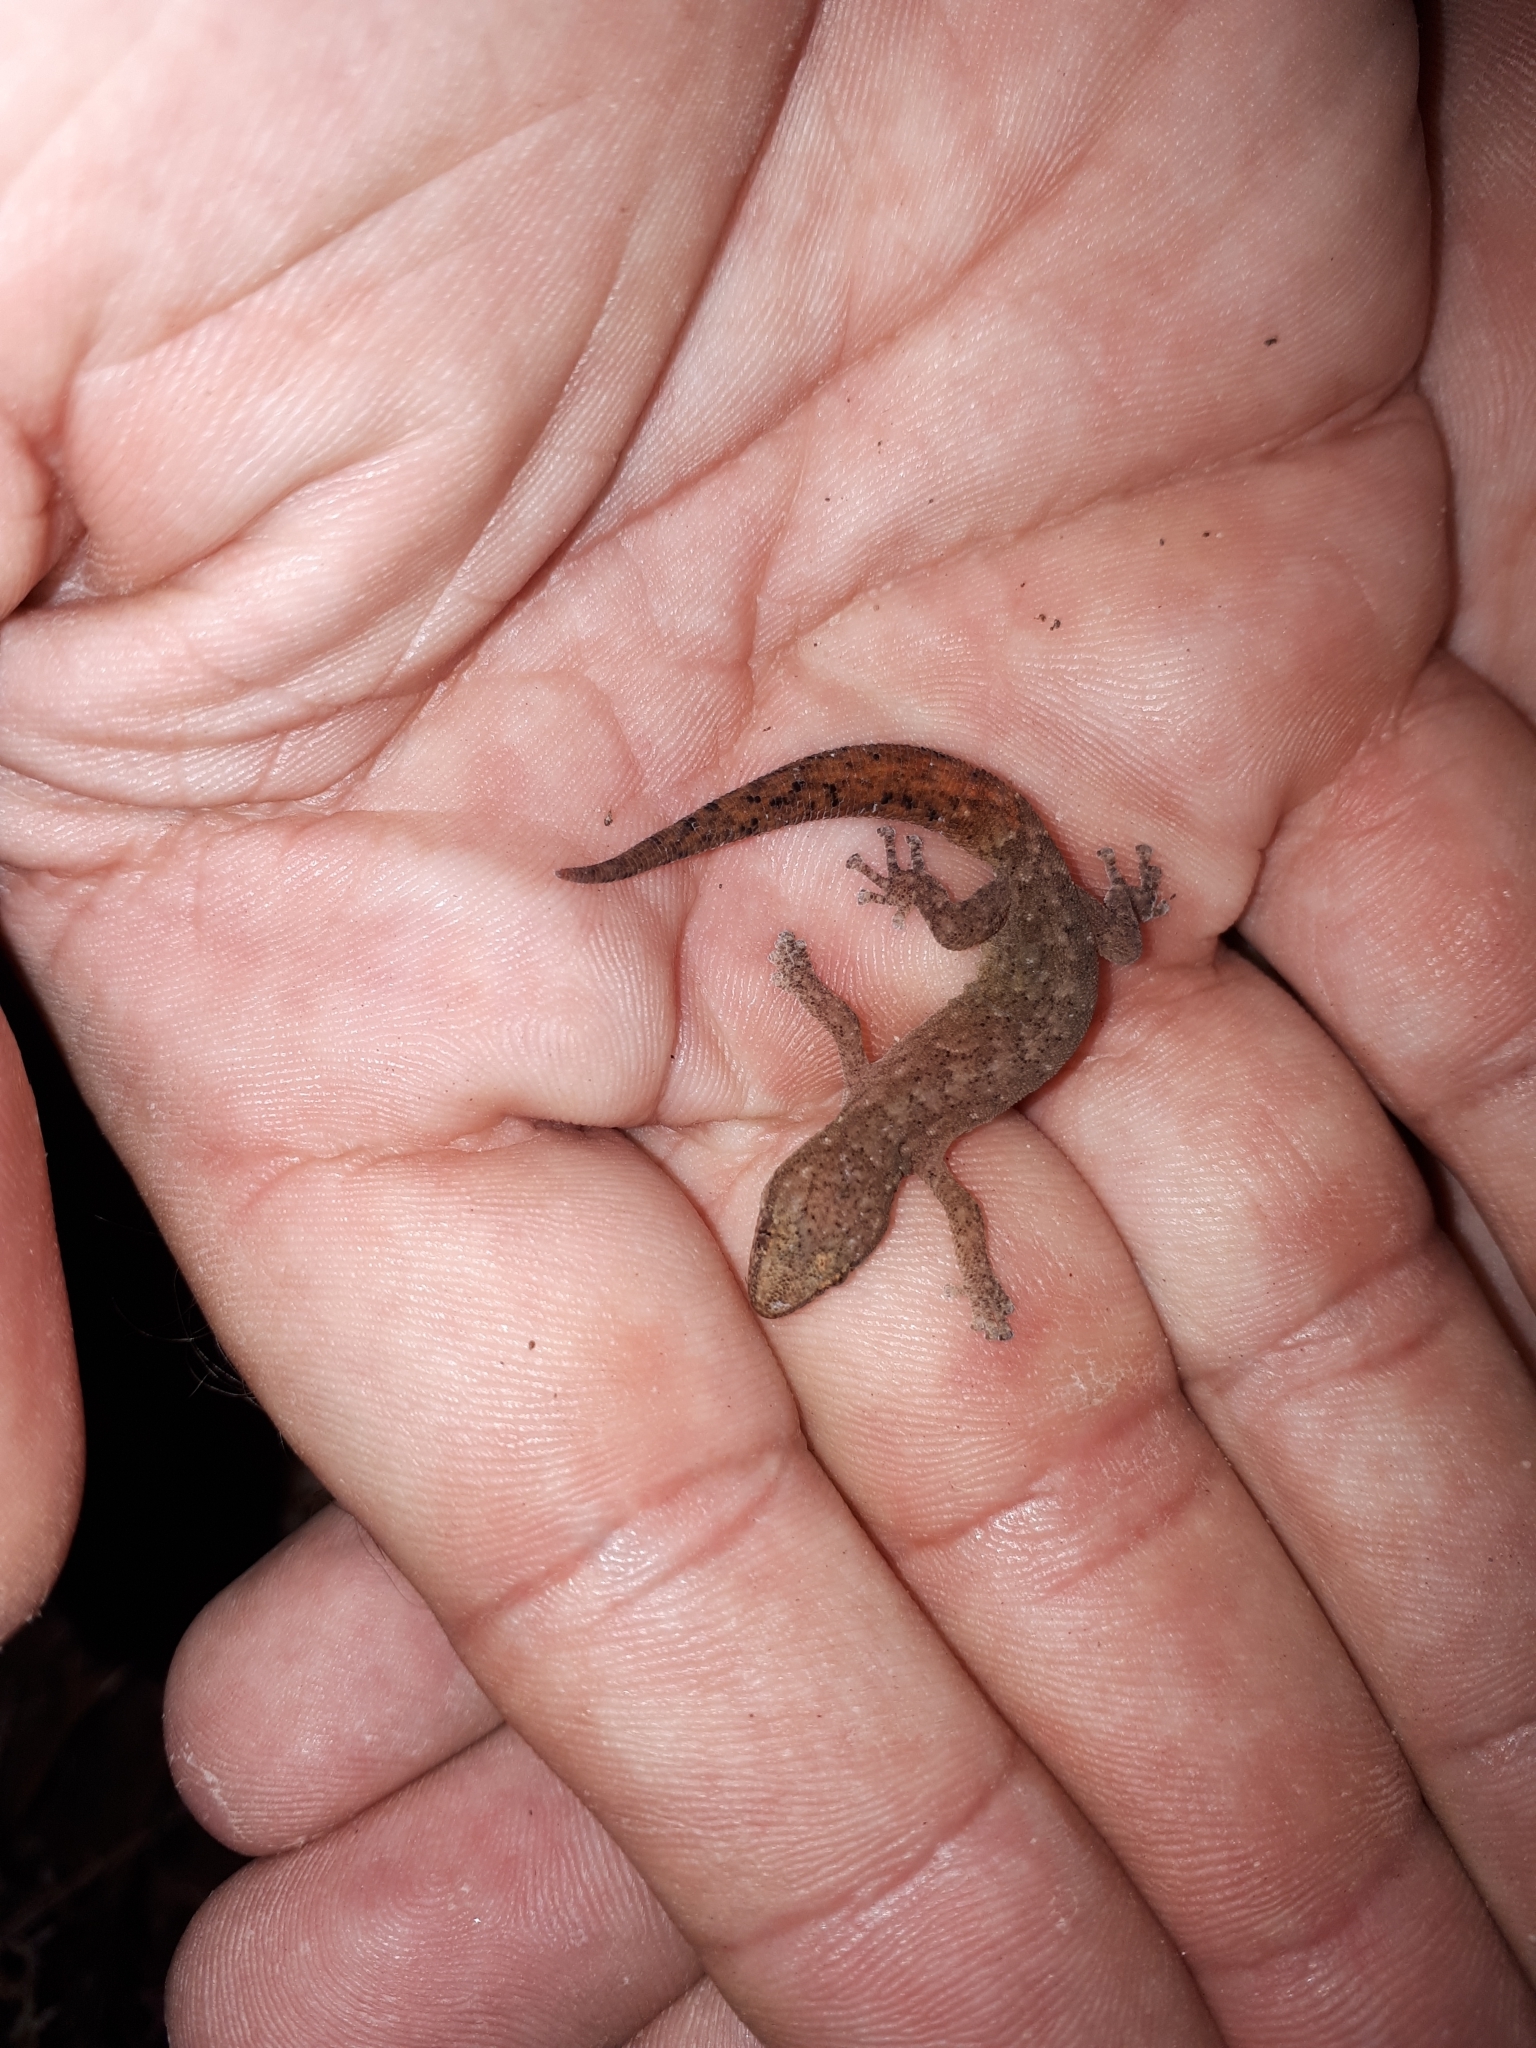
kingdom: Animalia
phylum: Chordata
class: Squamata
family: Gekkonidae
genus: Afrogecko
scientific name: Afrogecko porphyreus
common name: Marbled leaf-toed gecko
